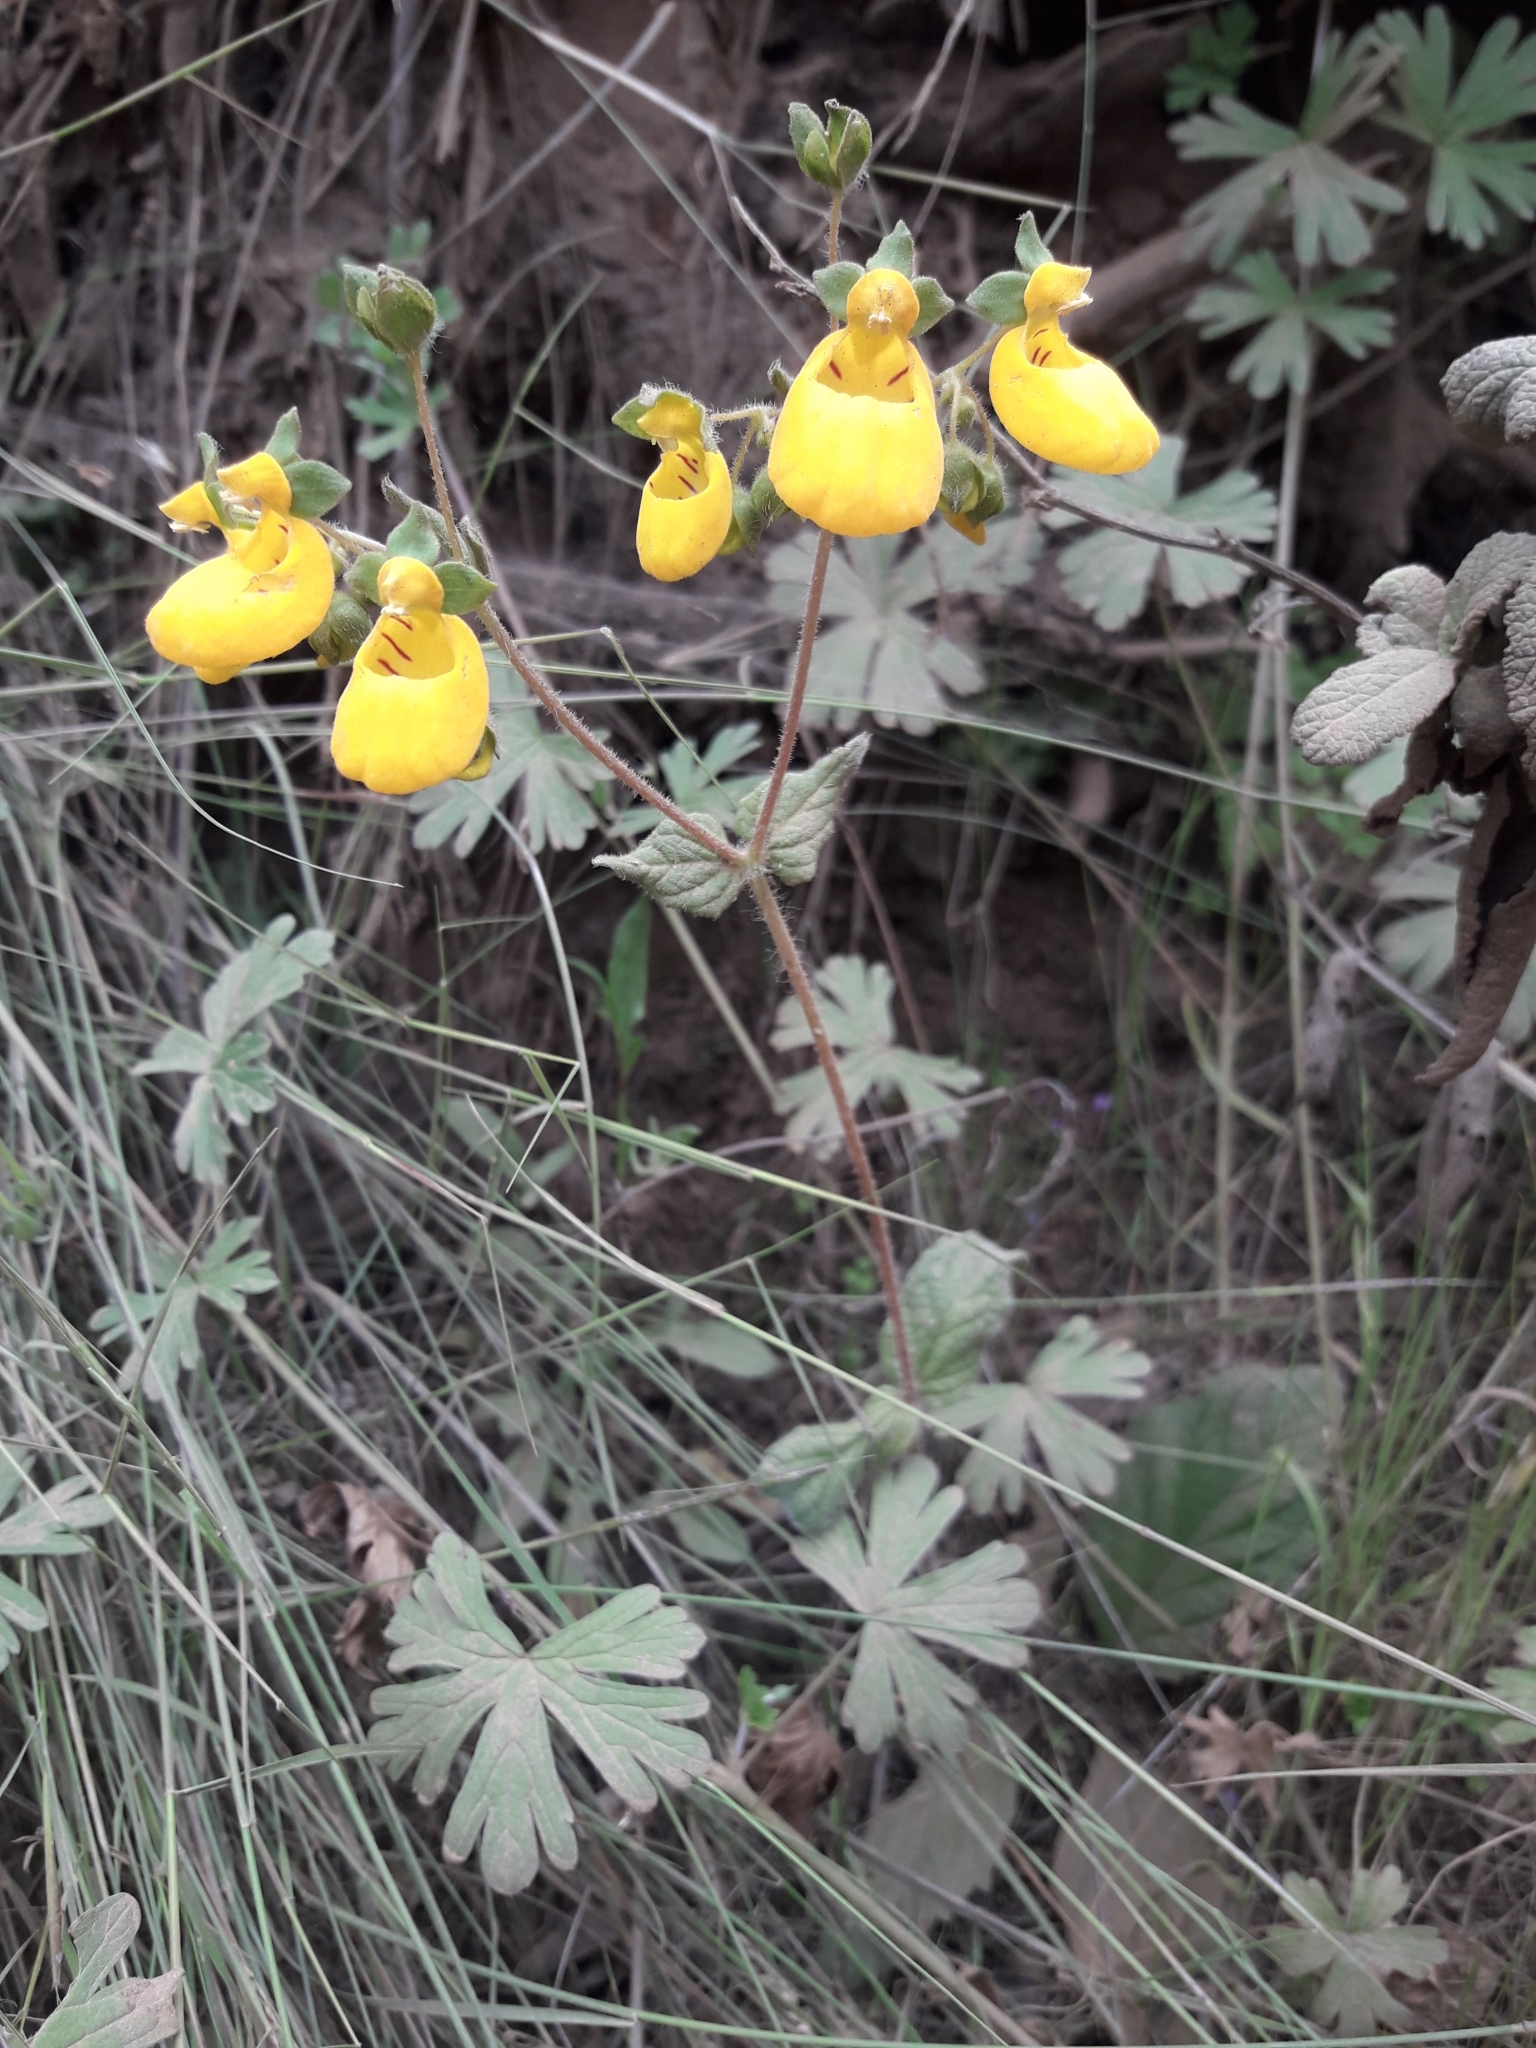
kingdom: Plantae
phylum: Tracheophyta
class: Magnoliopsida
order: Lamiales
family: Calceolariaceae
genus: Calceolaria
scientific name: Calceolaria corymbosa
